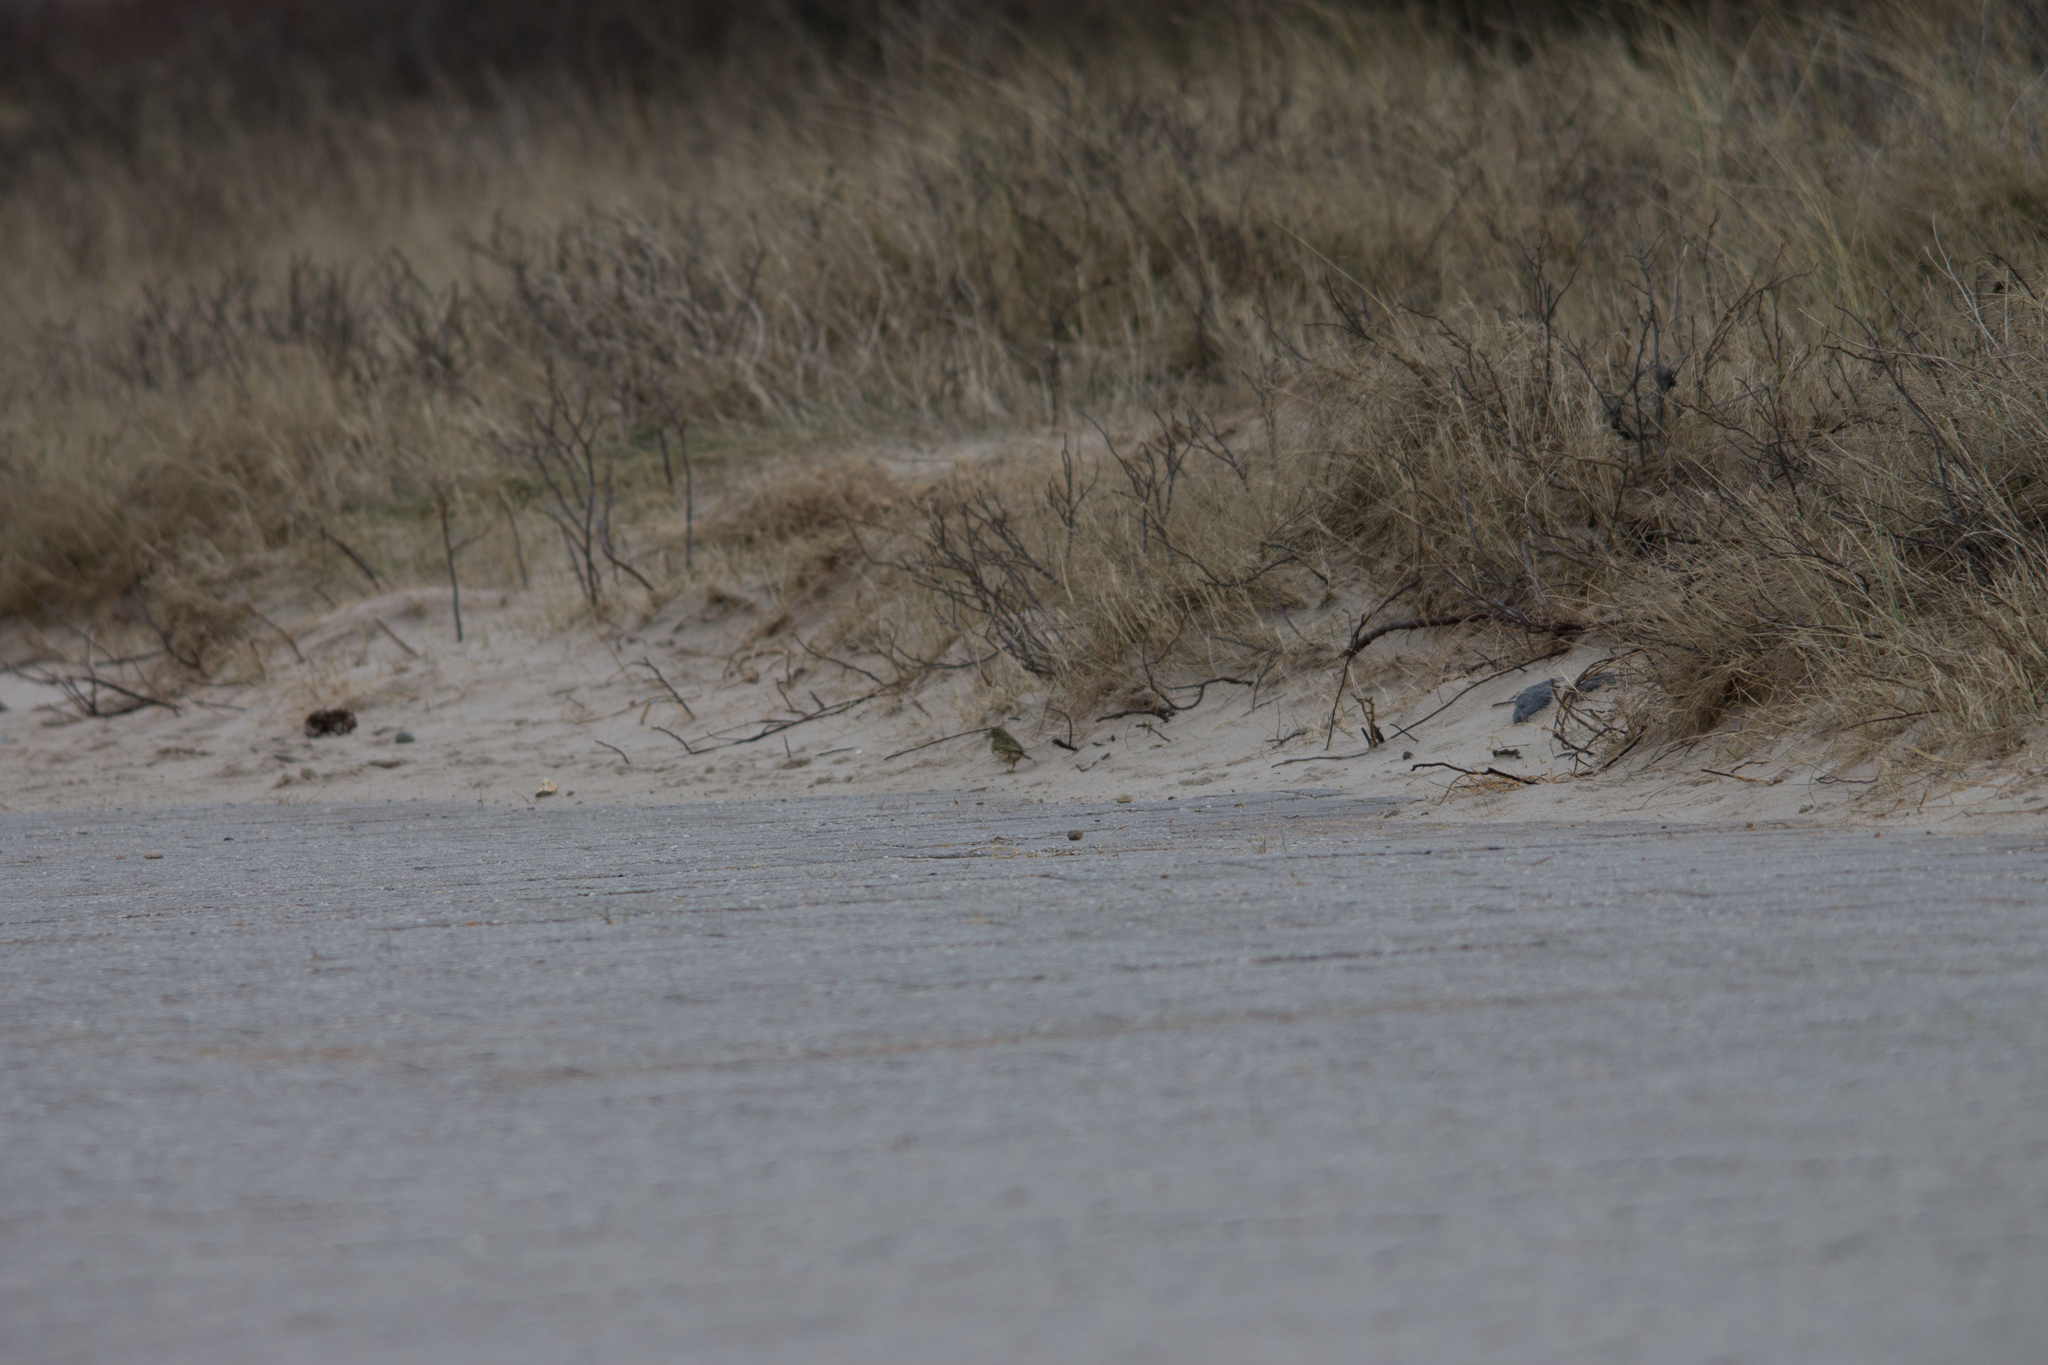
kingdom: Animalia
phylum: Chordata
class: Aves
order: Passeriformes
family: Motacillidae
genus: Anthus
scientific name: Anthus pratensis
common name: Meadow pipit
